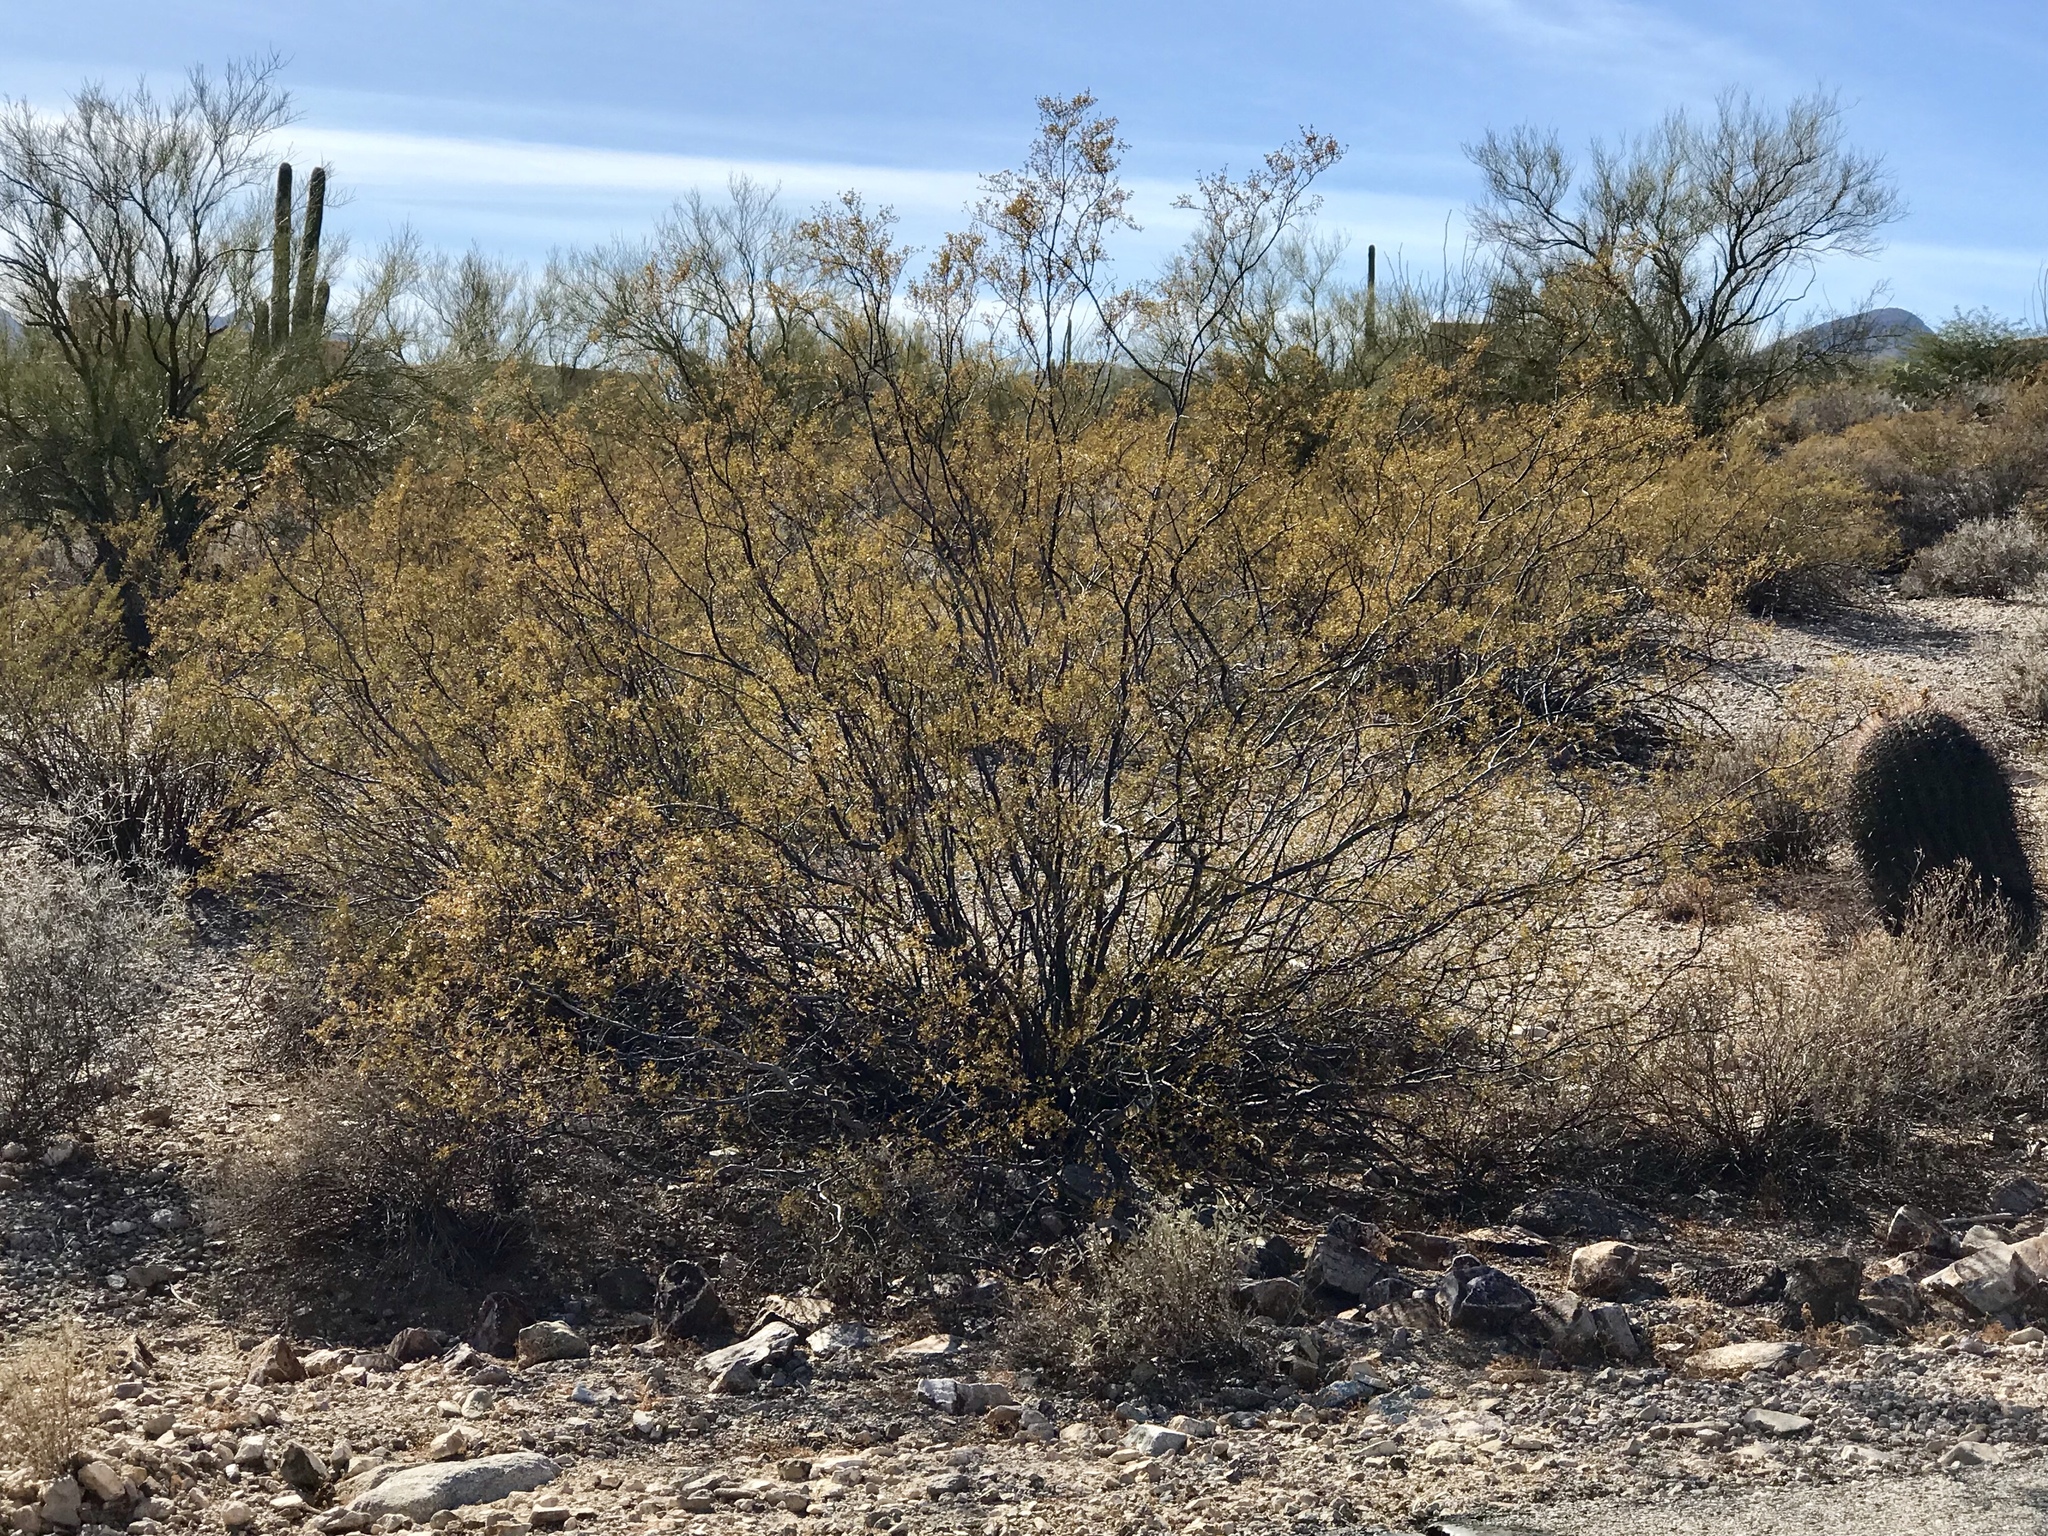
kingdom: Plantae
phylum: Tracheophyta
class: Magnoliopsida
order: Zygophyllales
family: Zygophyllaceae
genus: Larrea
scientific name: Larrea tridentata
